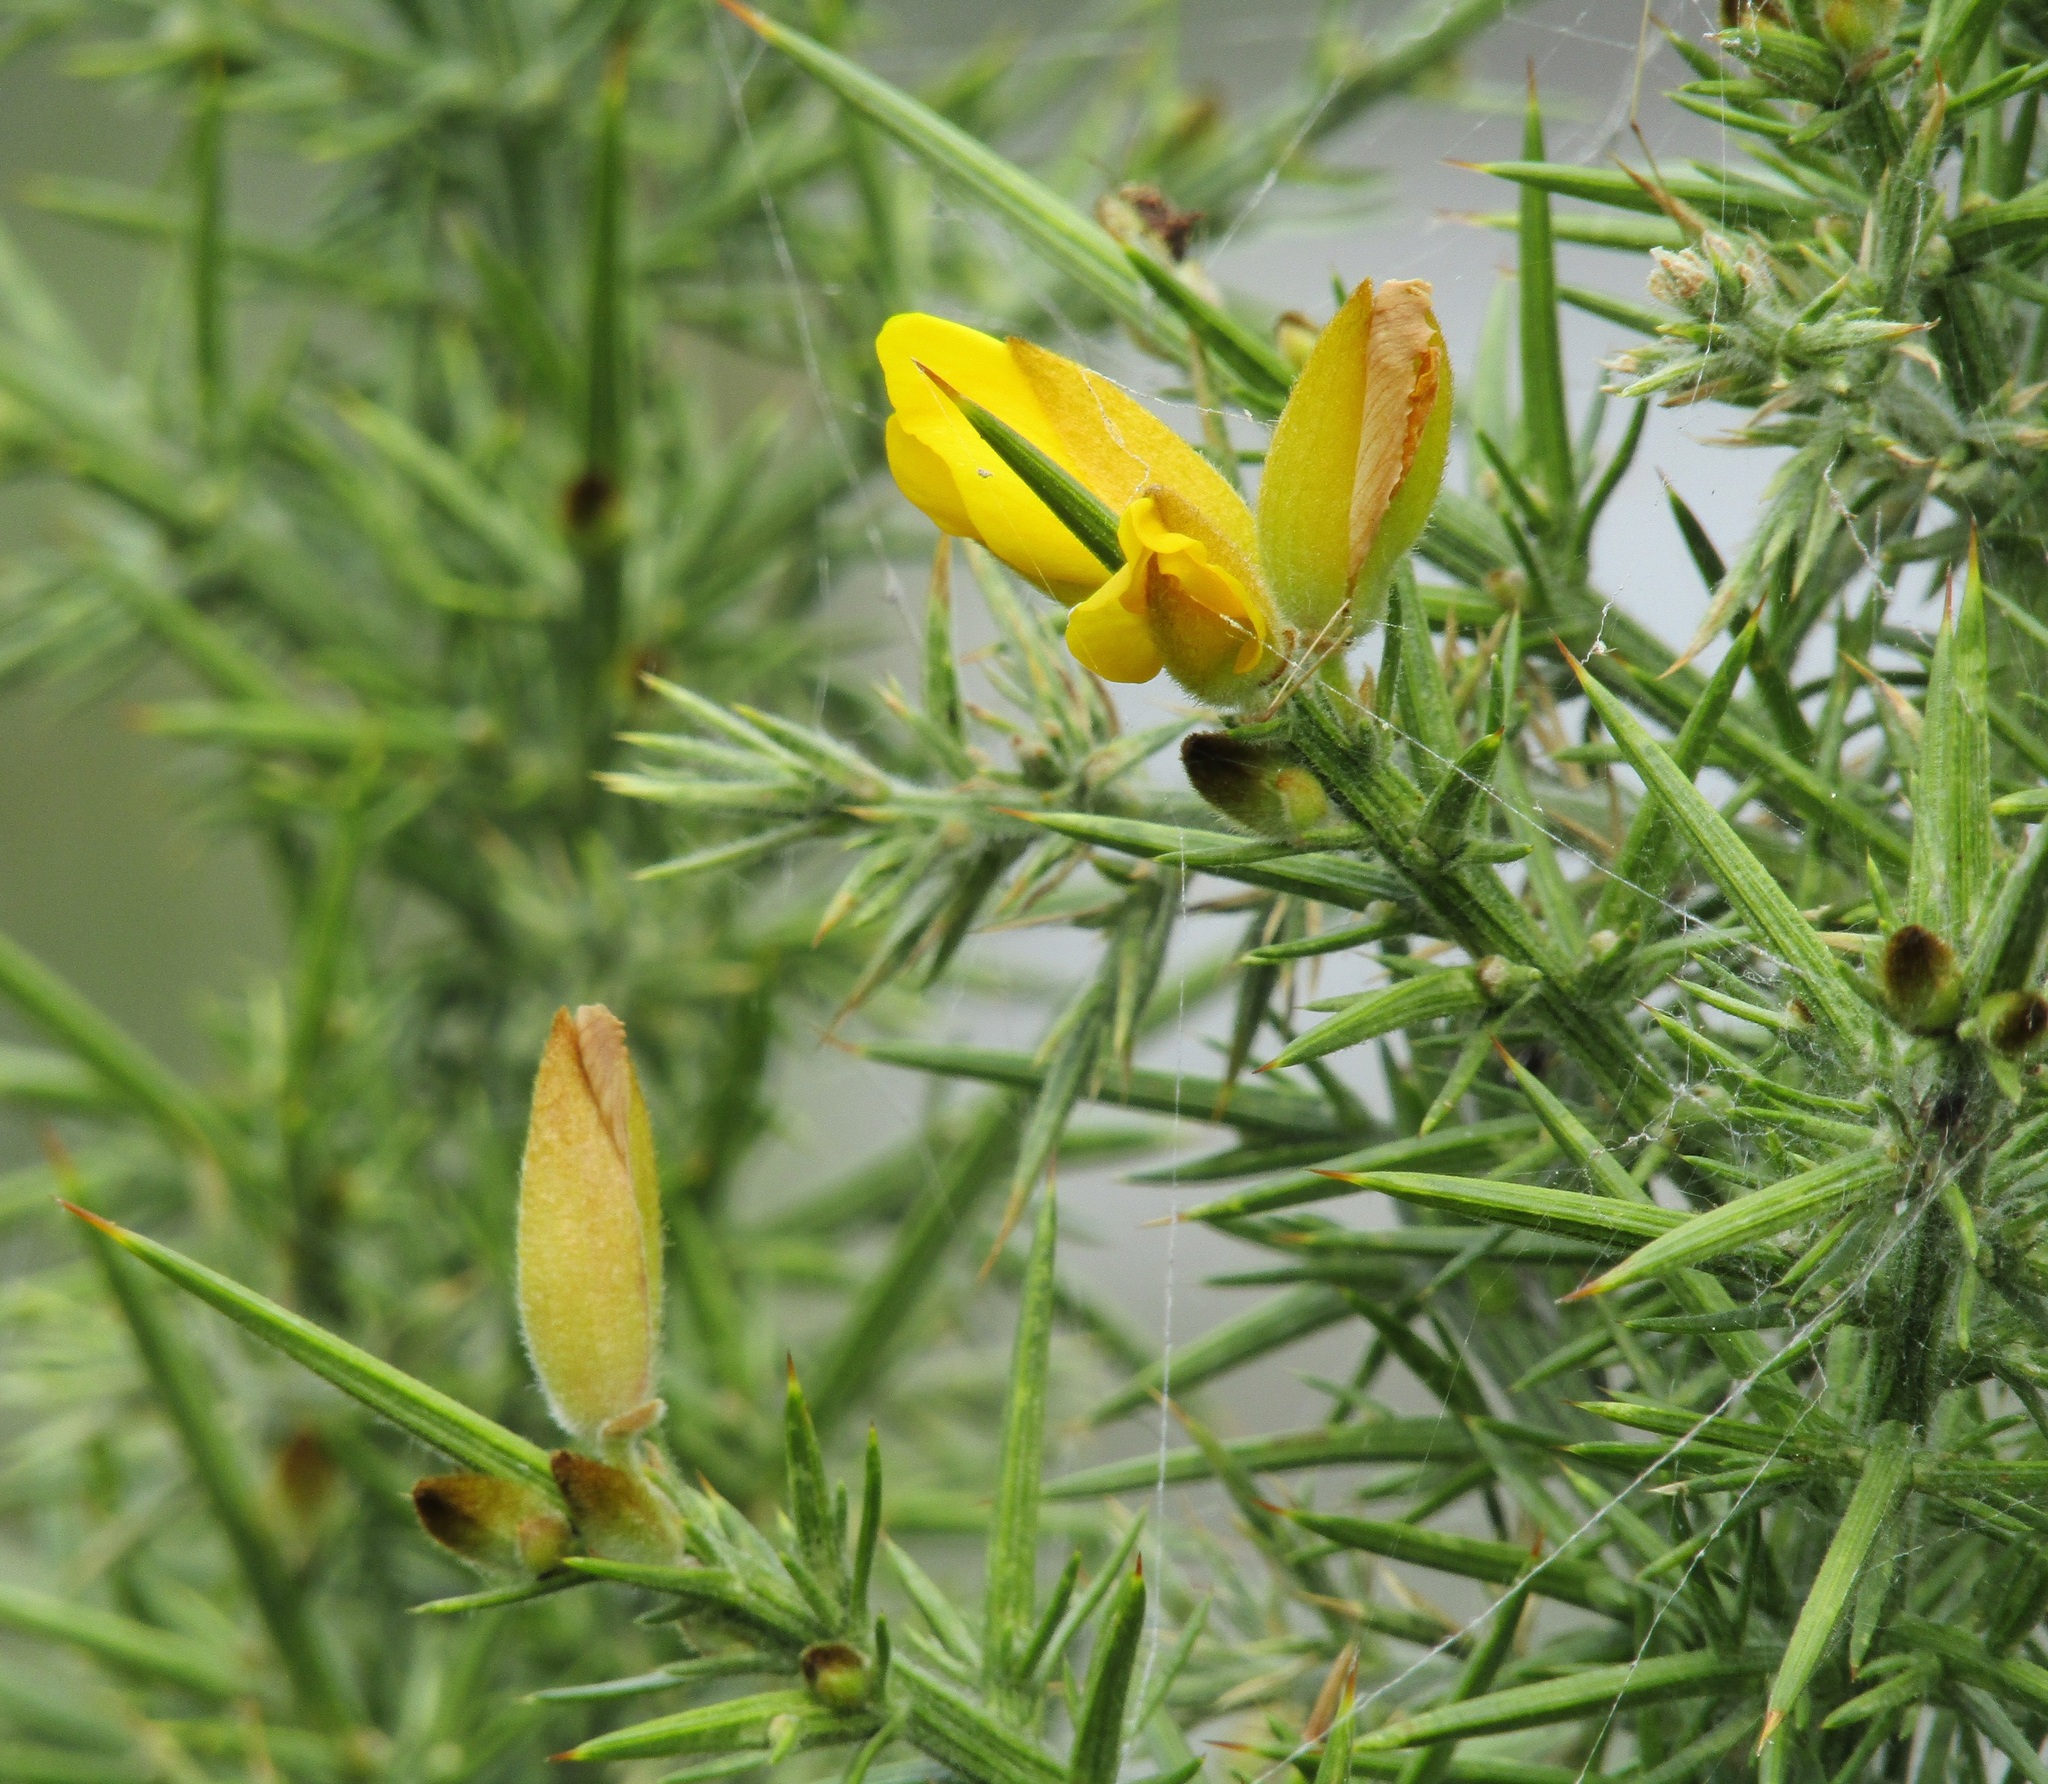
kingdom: Plantae
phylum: Tracheophyta
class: Magnoliopsida
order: Fabales
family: Fabaceae
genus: Ulex
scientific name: Ulex europaeus
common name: Common gorse
